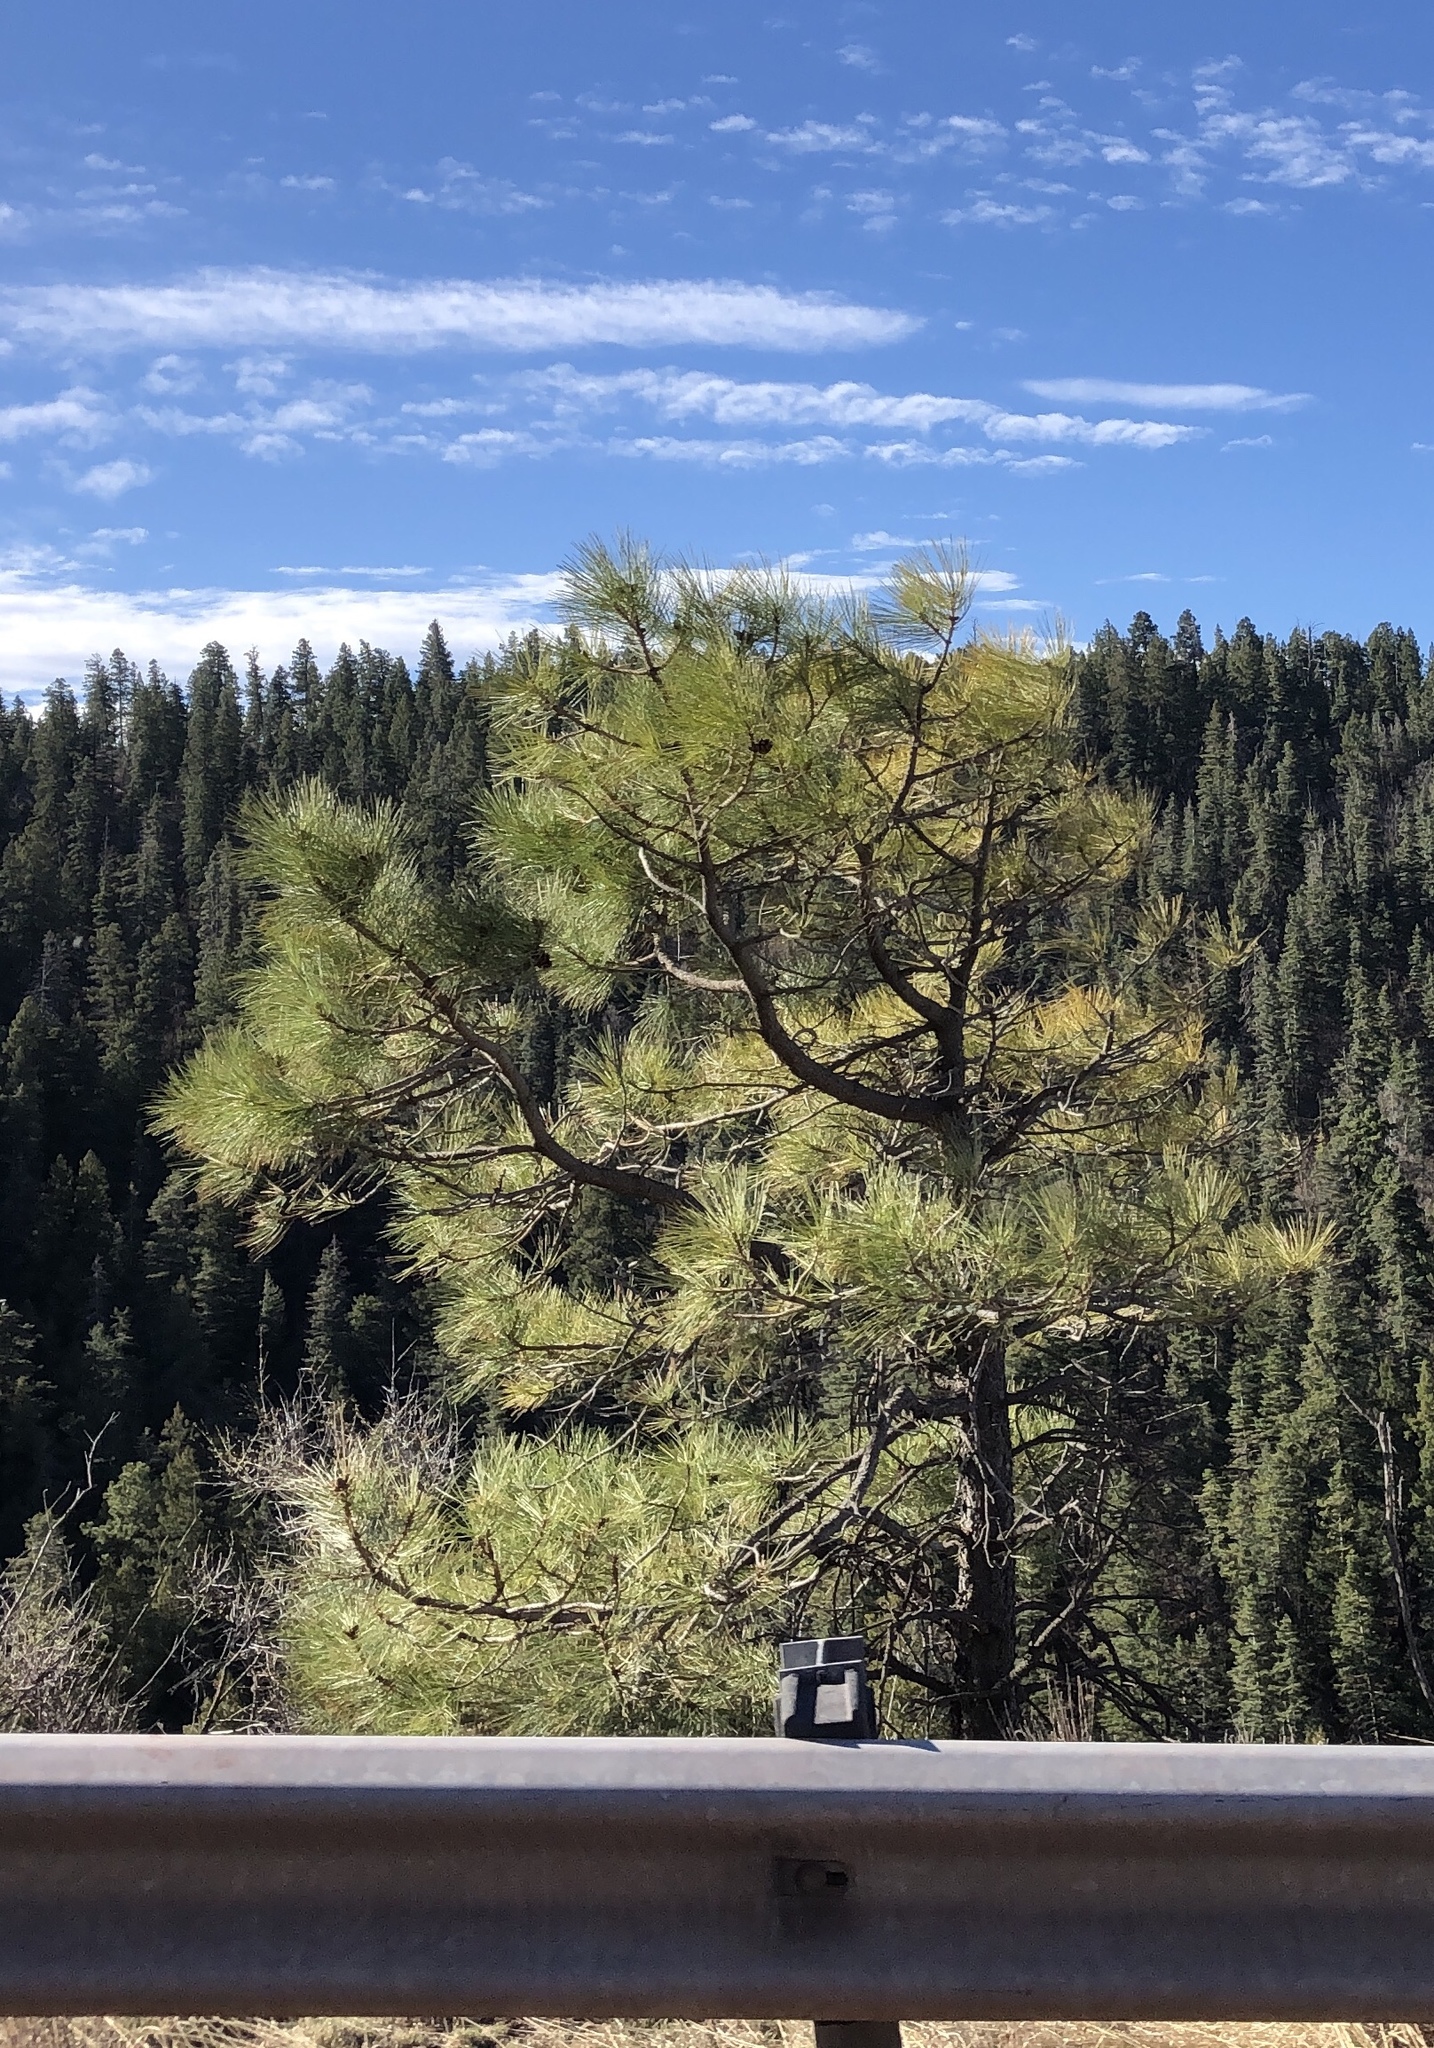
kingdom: Plantae
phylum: Tracheophyta
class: Pinopsida
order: Pinales
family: Pinaceae
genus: Pinus
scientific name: Pinus ponderosa
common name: Western yellow-pine
